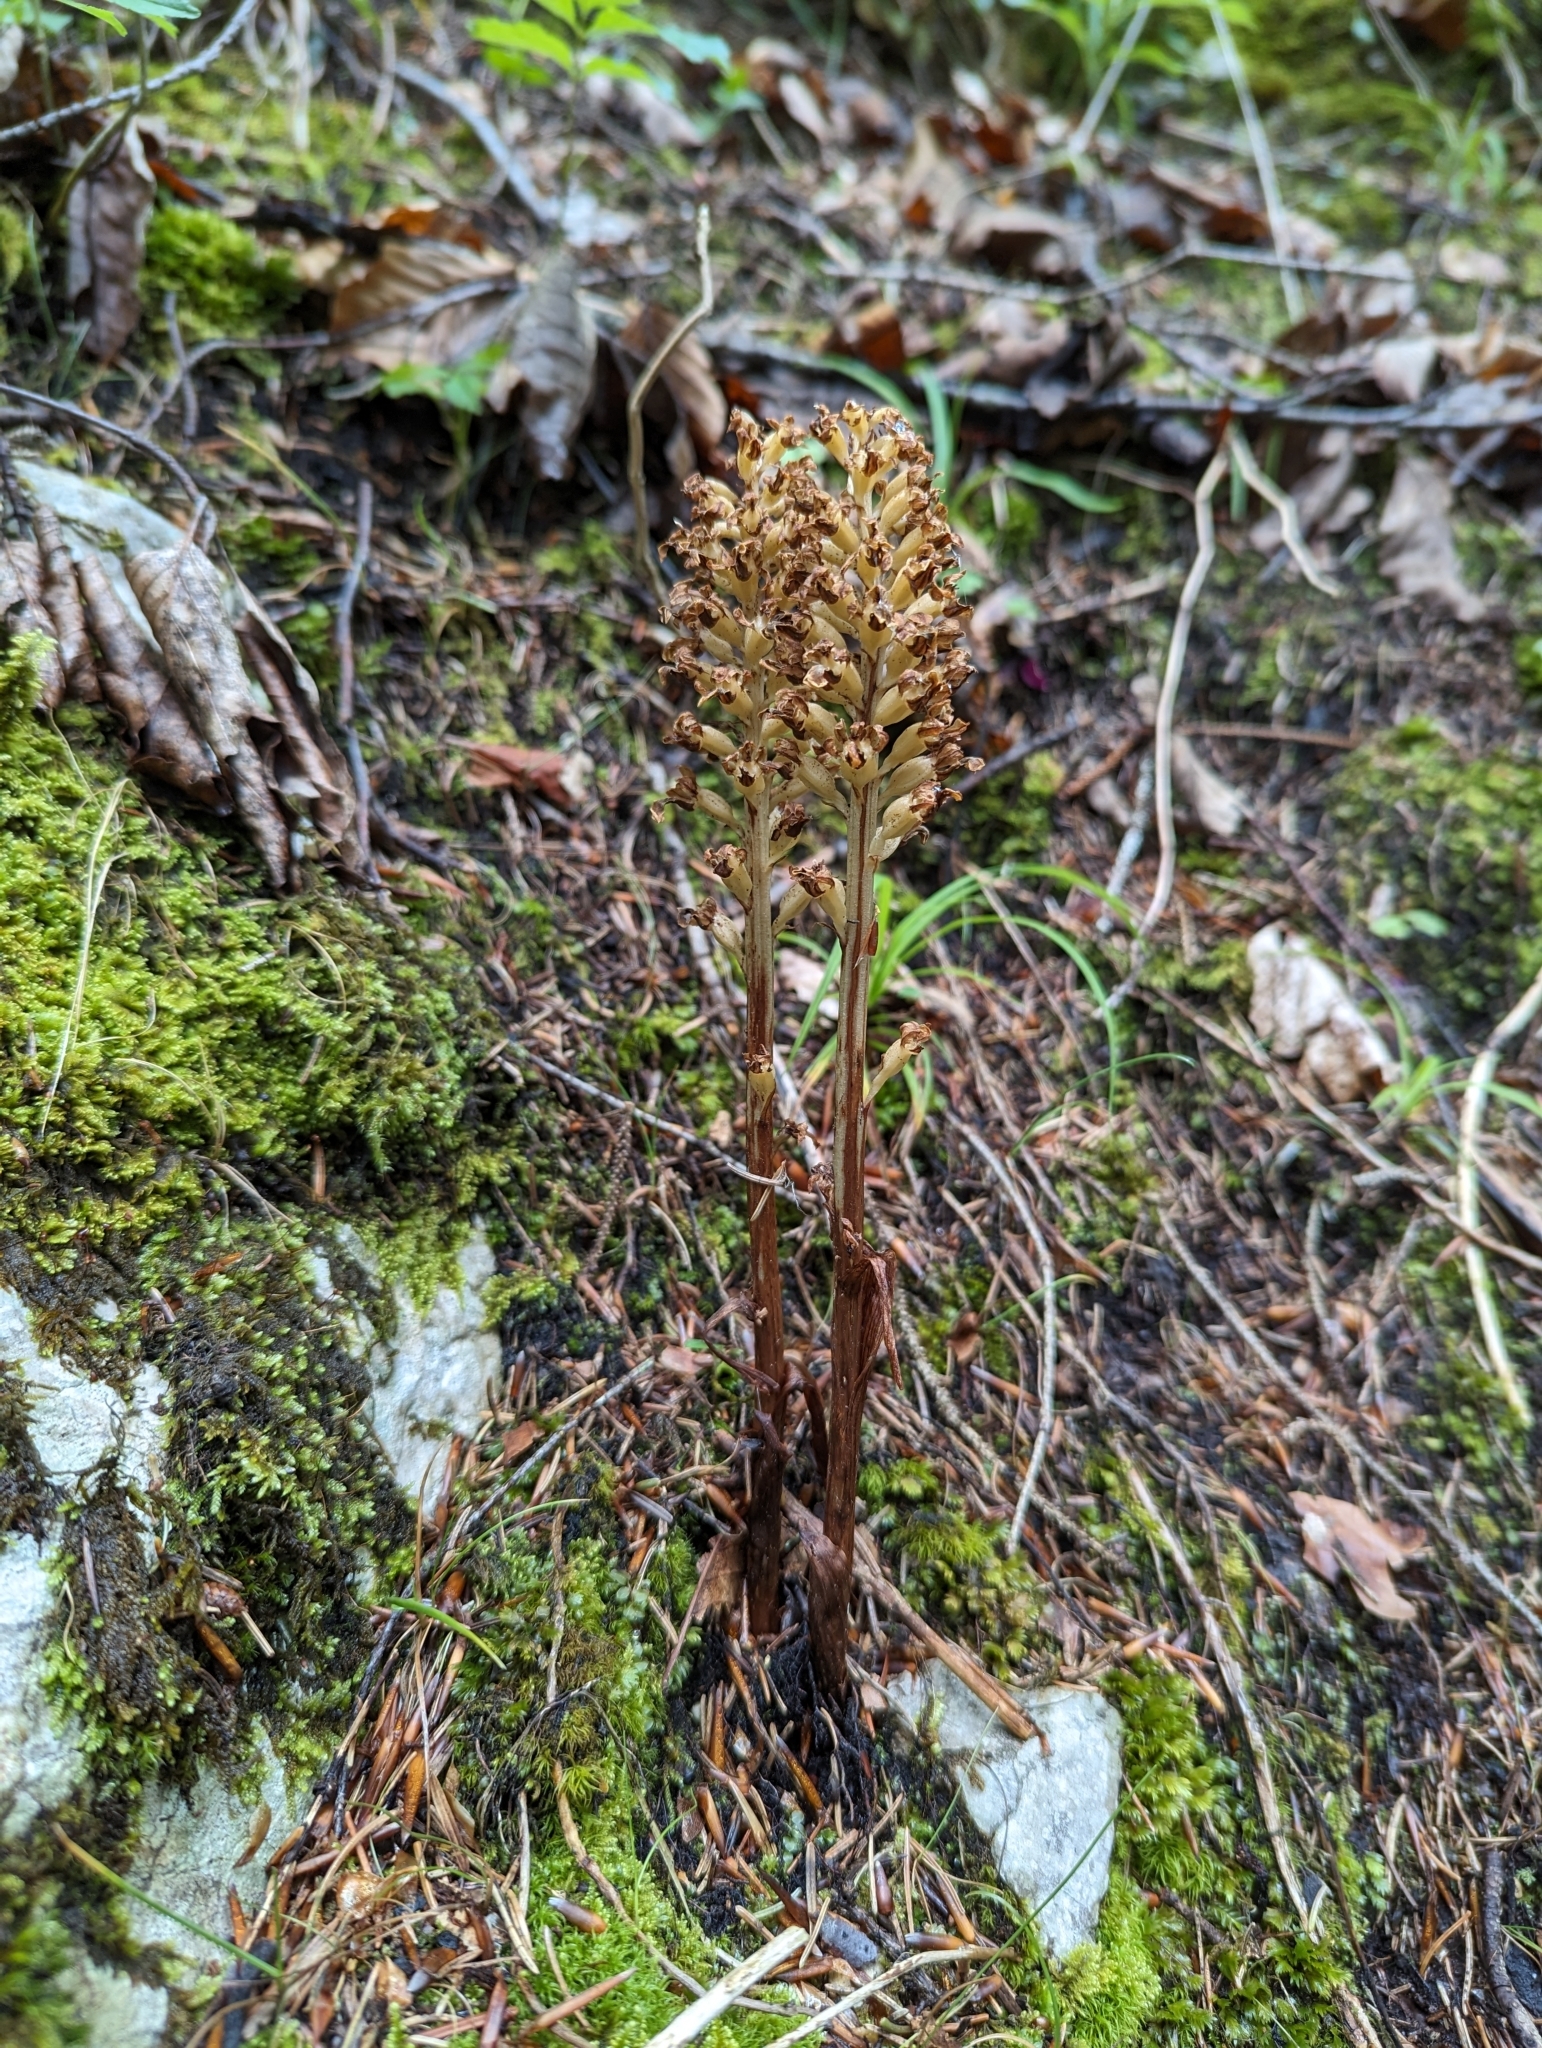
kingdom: Plantae
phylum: Tracheophyta
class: Liliopsida
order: Asparagales
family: Orchidaceae
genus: Neottia
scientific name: Neottia nidus-avis
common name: Bird's-nest orchid
